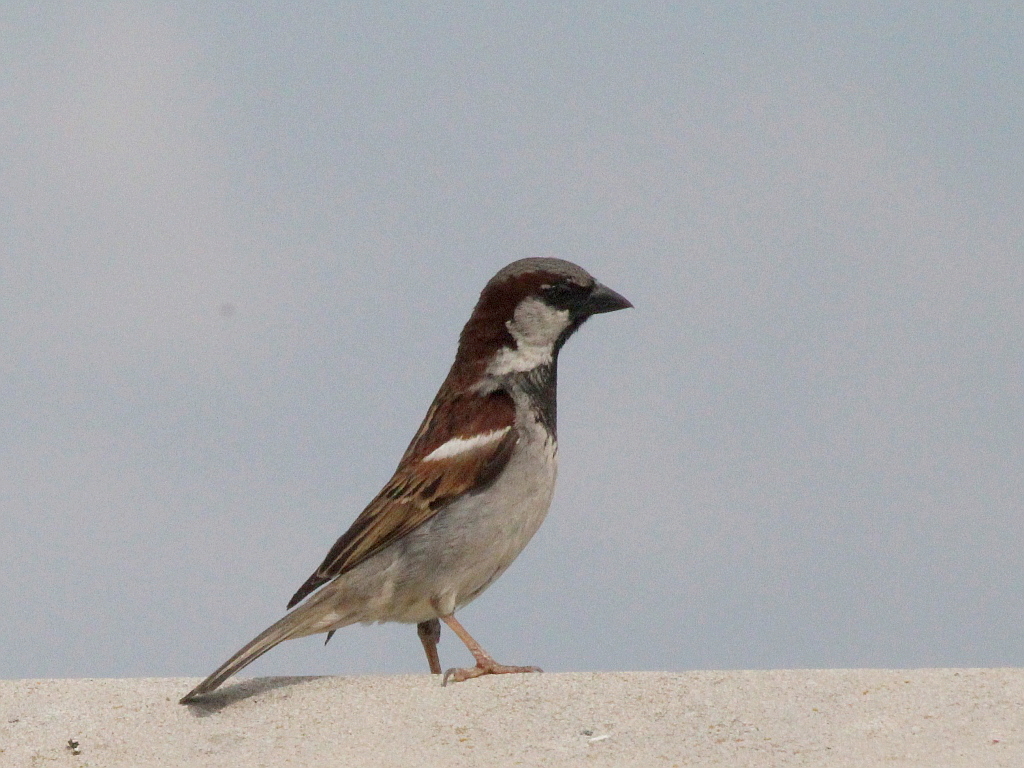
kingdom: Animalia
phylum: Chordata
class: Aves
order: Passeriformes
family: Passeridae
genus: Passer
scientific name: Passer domesticus
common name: House sparrow
